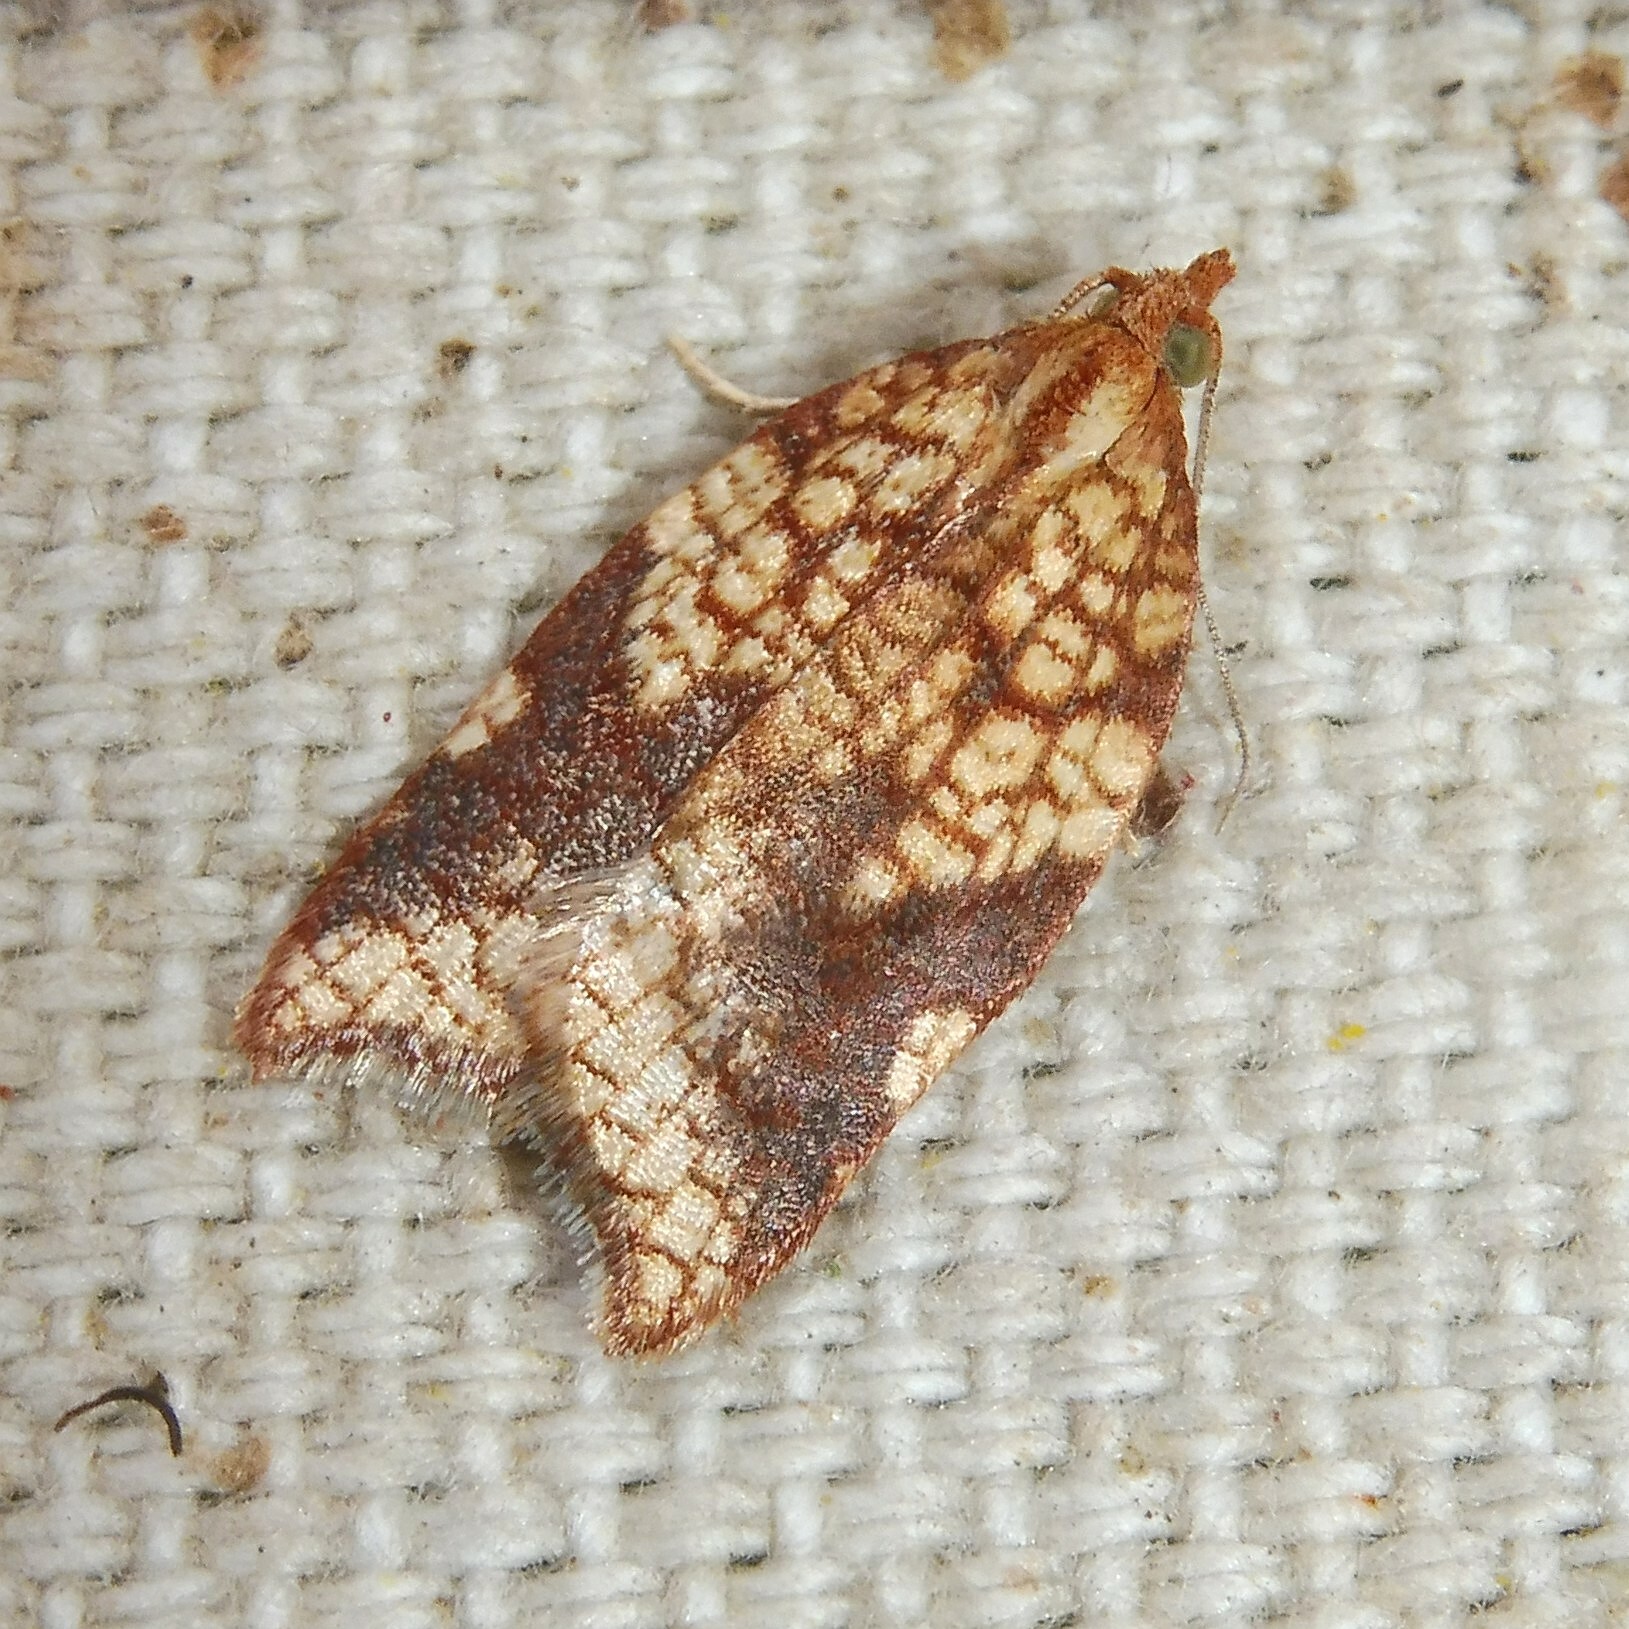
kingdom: Animalia
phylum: Arthropoda
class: Insecta
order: Lepidoptera
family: Tortricidae
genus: Acleris
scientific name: Acleris rhombana
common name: Tortricid moth
